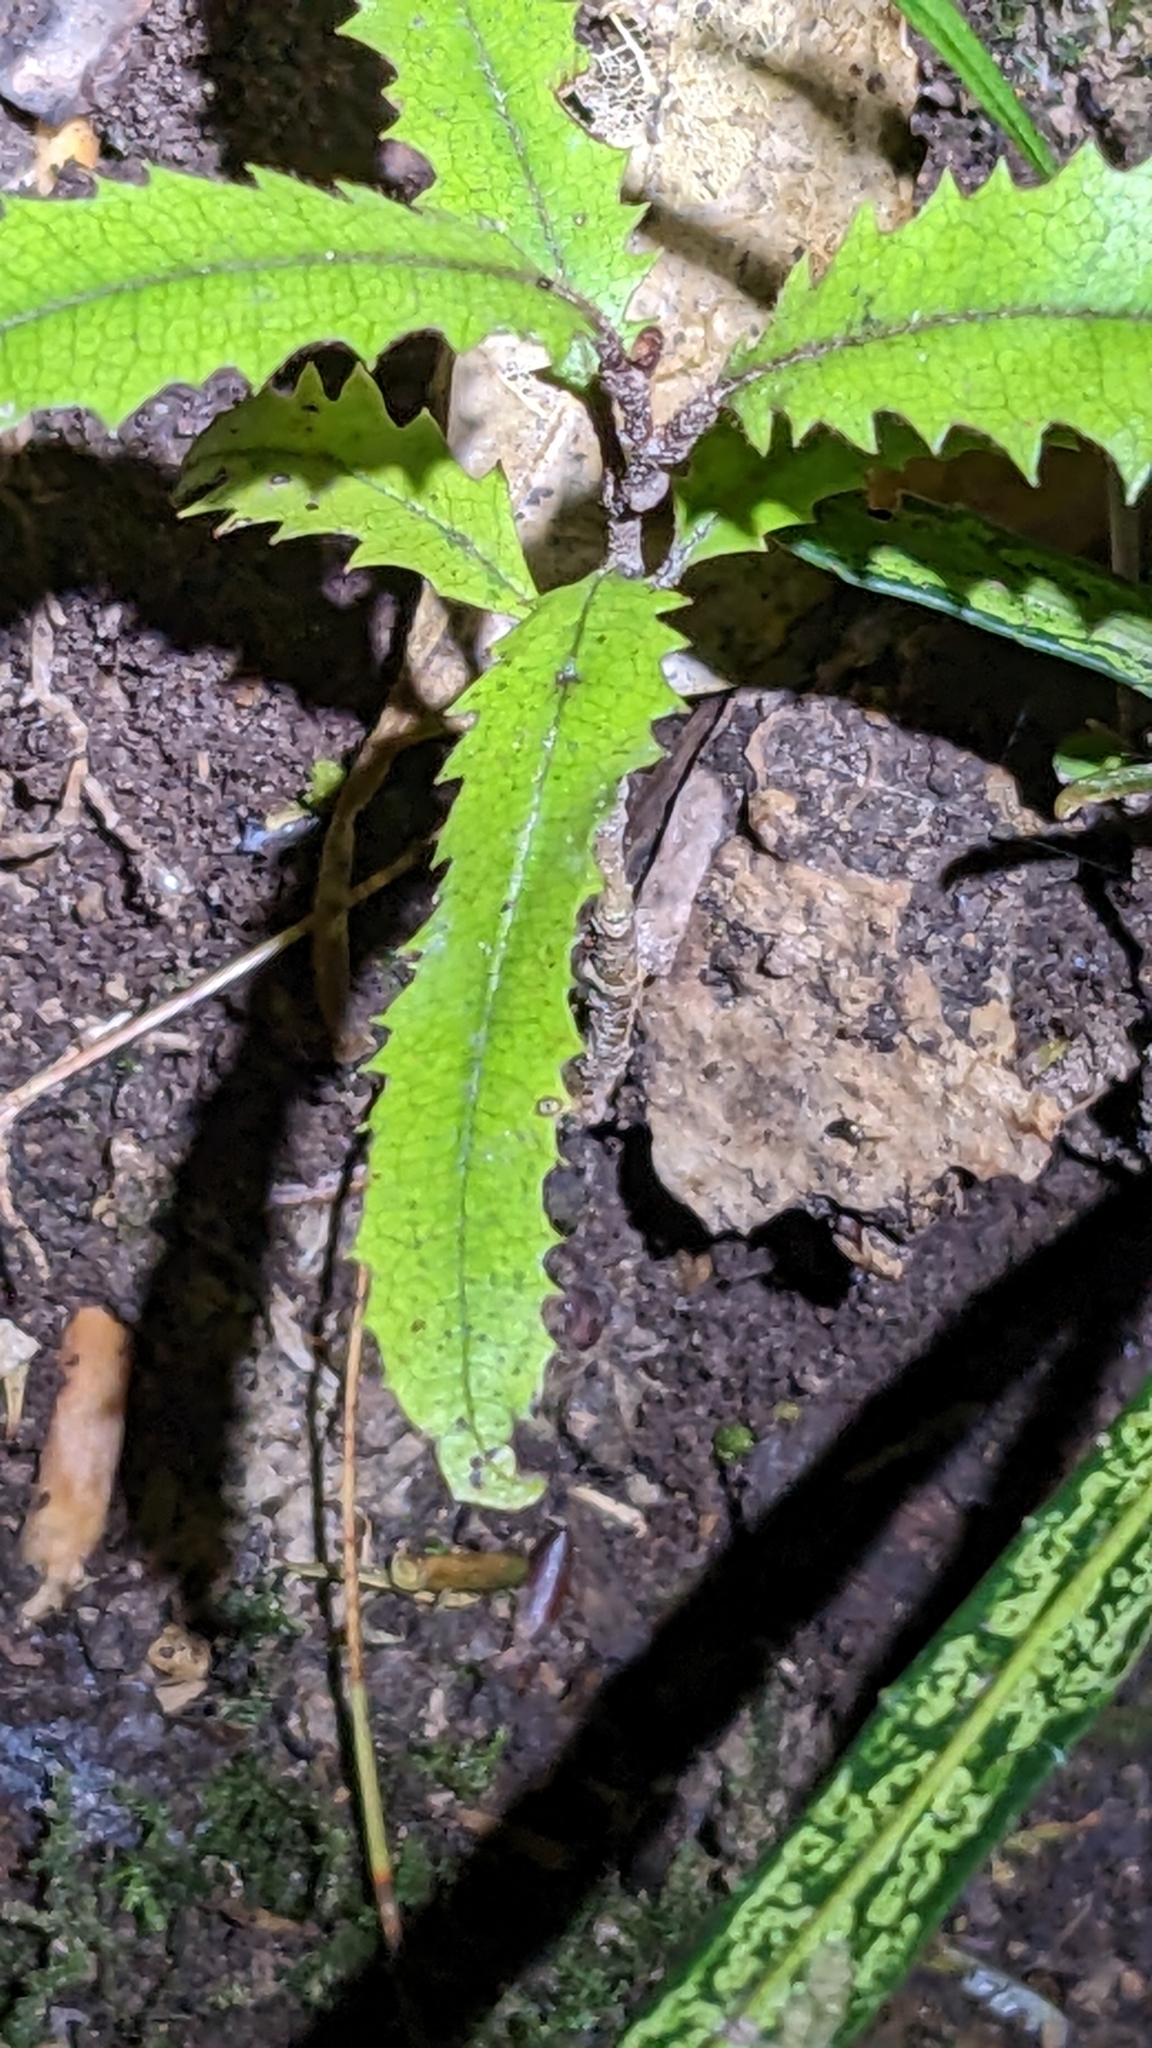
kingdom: Plantae
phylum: Tracheophyta
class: Magnoliopsida
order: Proteales
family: Proteaceae
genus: Knightia
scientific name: Knightia excelsa
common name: New zealand-honeysuckle
